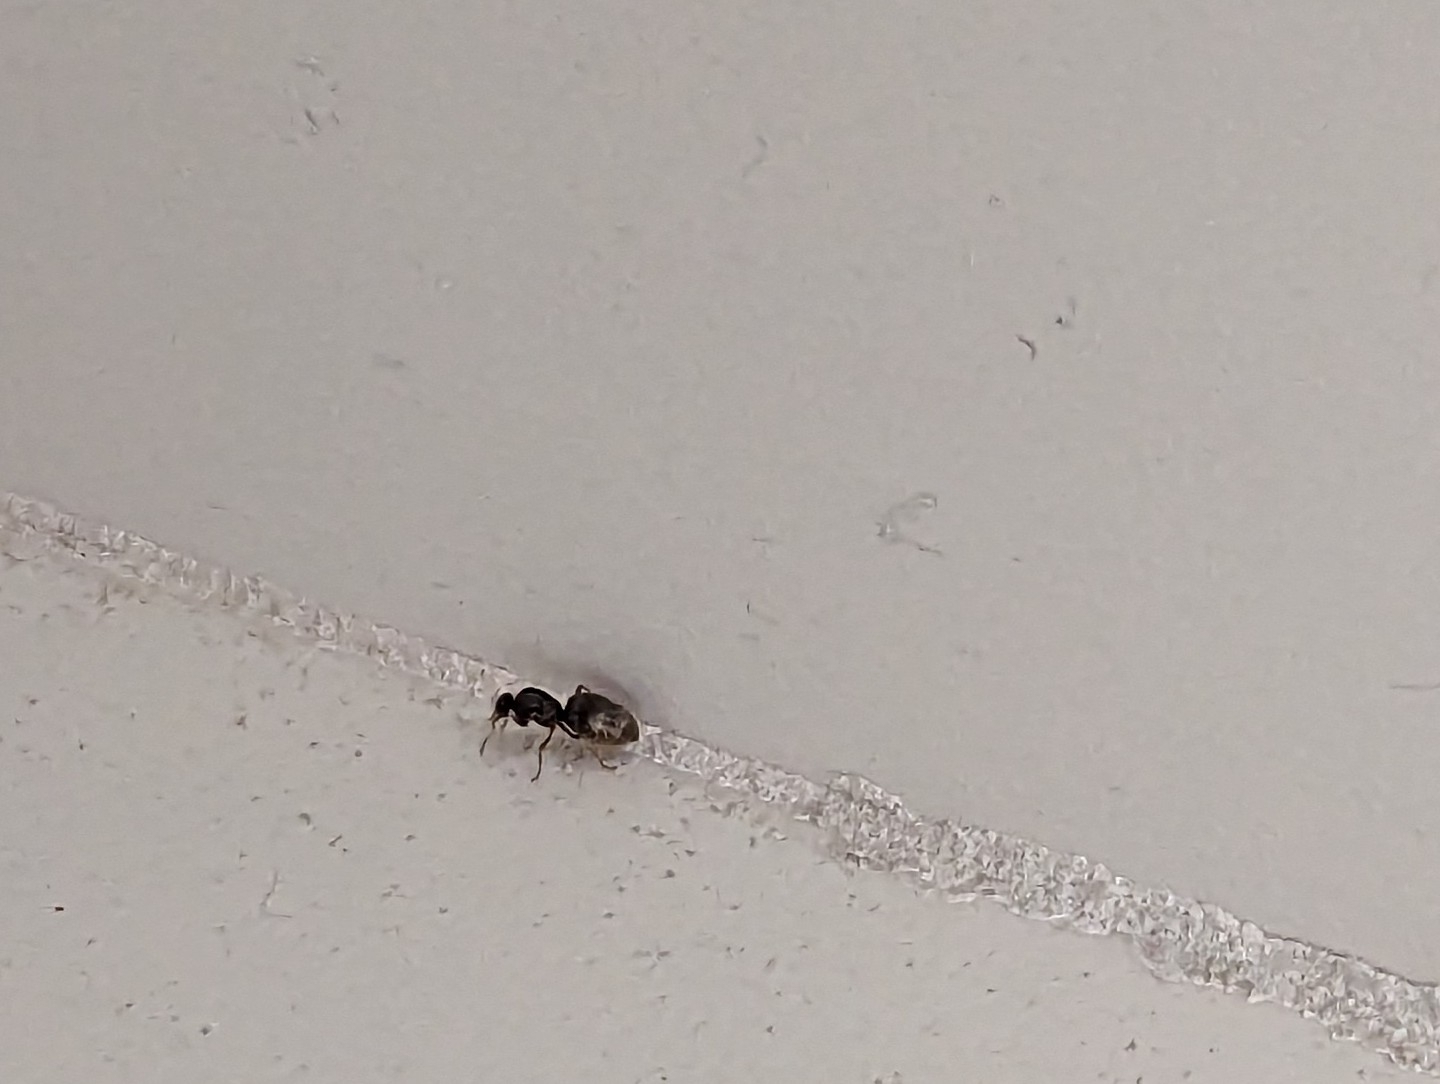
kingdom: Animalia
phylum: Arthropoda
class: Insecta
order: Hymenoptera
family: Formicidae
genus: Lasius
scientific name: Lasius neoniger
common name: Turfgrass ant
